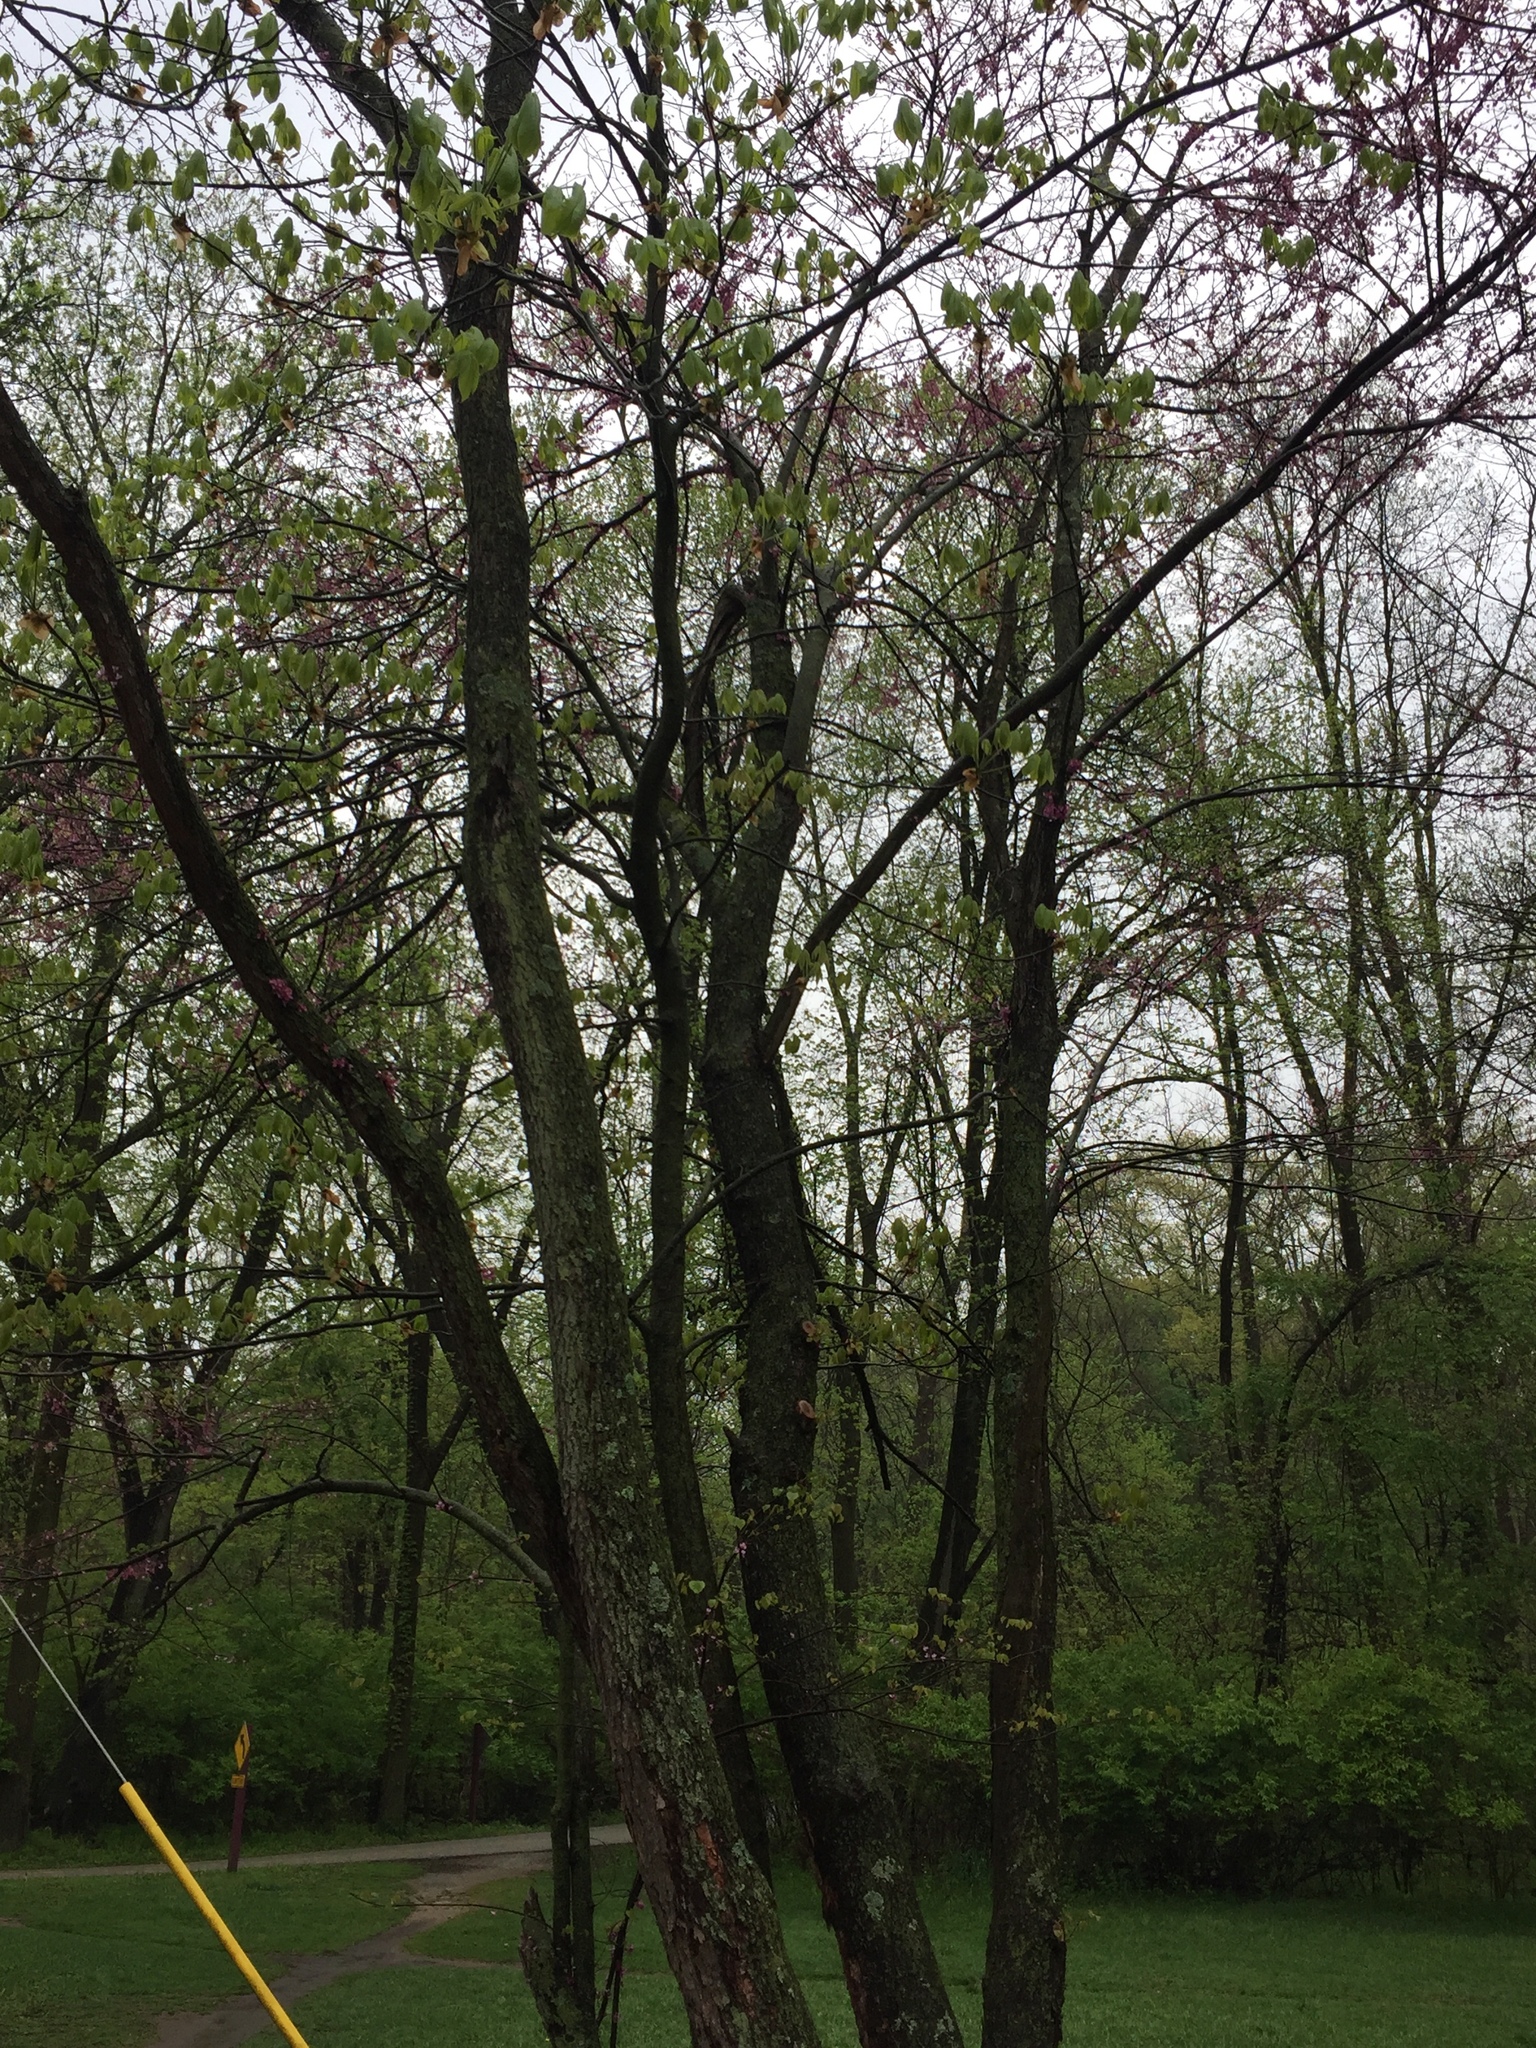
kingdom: Plantae
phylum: Tracheophyta
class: Magnoliopsida
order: Fabales
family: Fabaceae
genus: Cercis
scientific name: Cercis canadensis
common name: Eastern redbud
